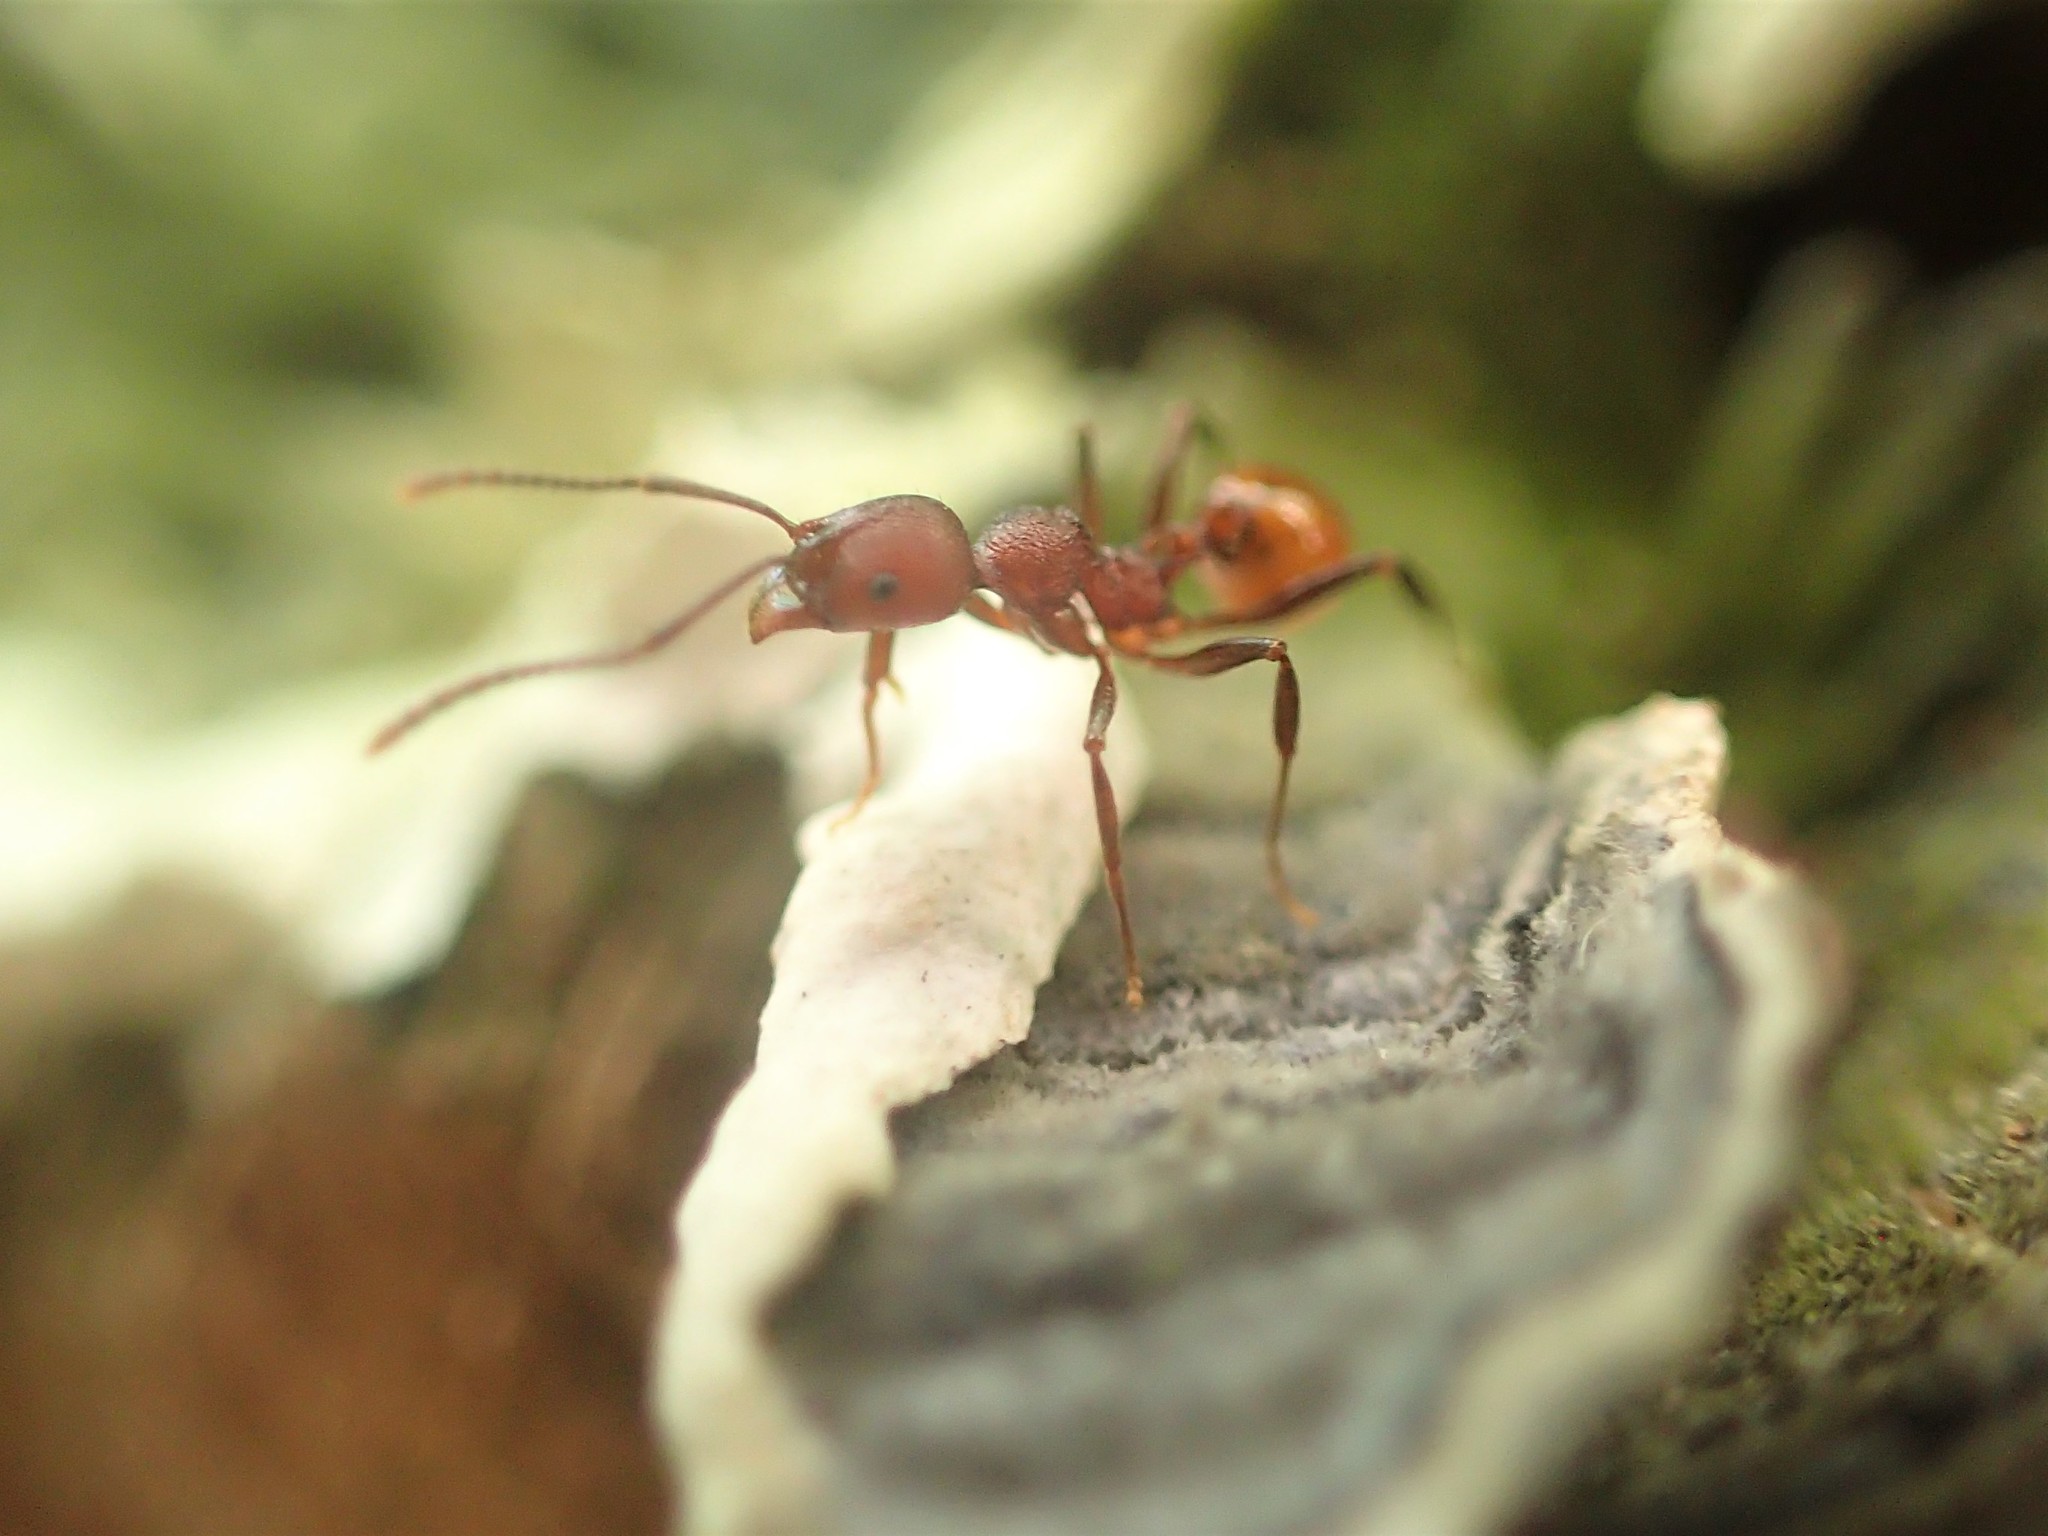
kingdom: Animalia
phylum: Arthropoda
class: Insecta
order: Hymenoptera
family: Formicidae
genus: Aphaenogaster
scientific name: Aphaenogaster tennesseensis
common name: Tennessee thread-waisted ant
